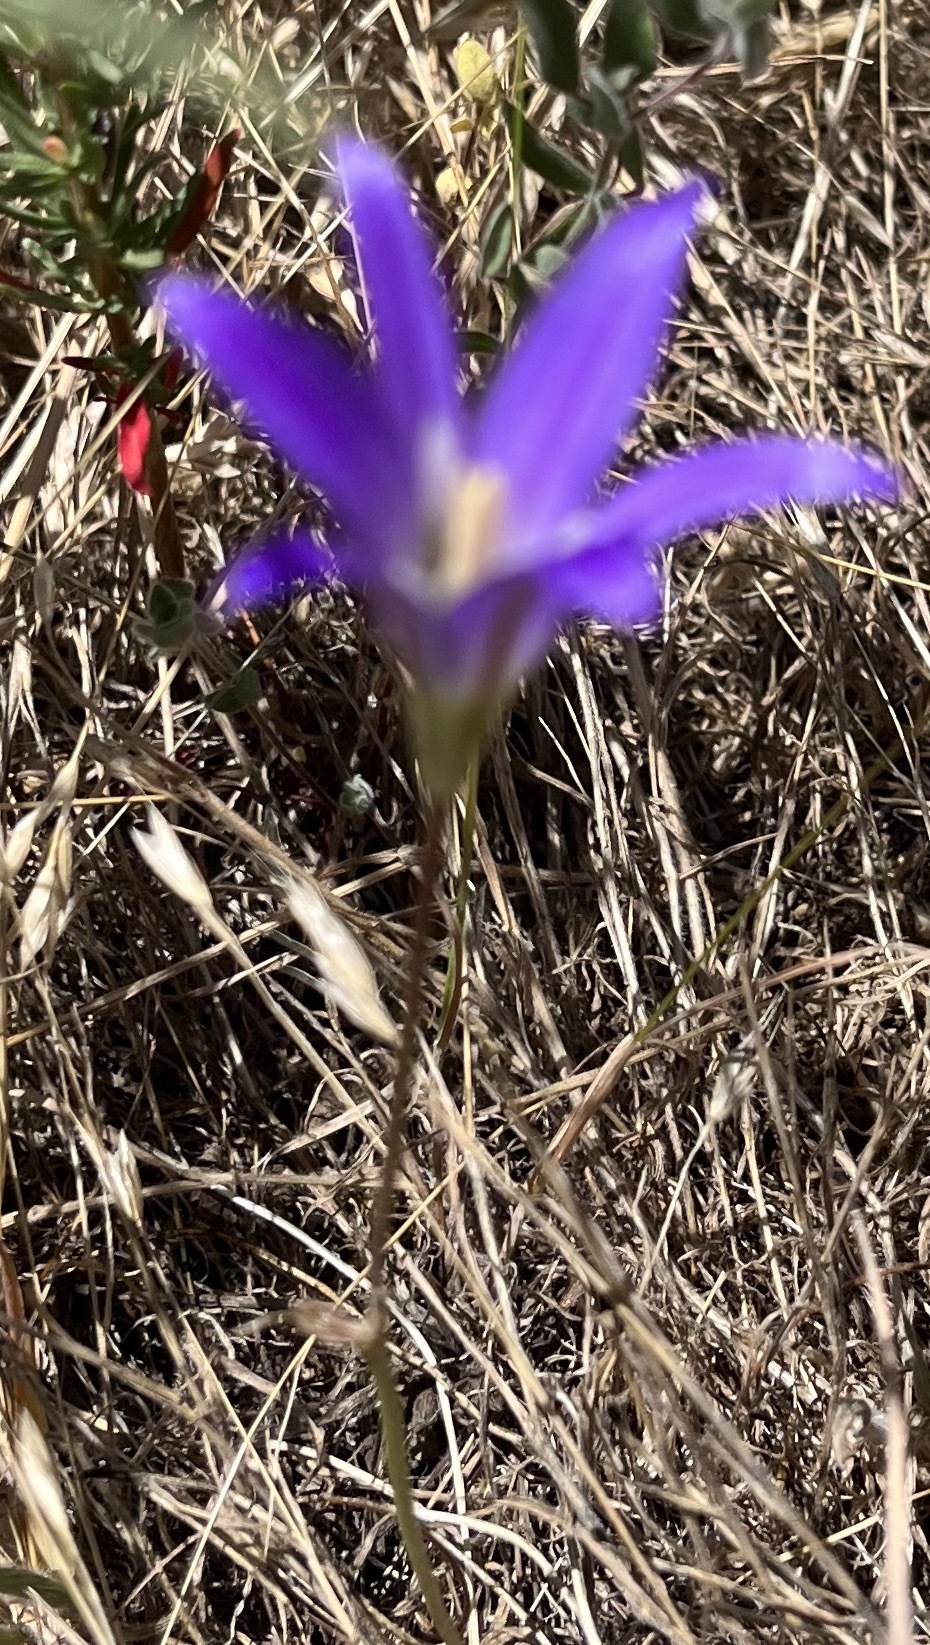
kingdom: Plantae
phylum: Tracheophyta
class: Liliopsida
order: Asparagales
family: Asparagaceae
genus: Brodiaea
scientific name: Brodiaea elegans
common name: Elegant cluster-lily
